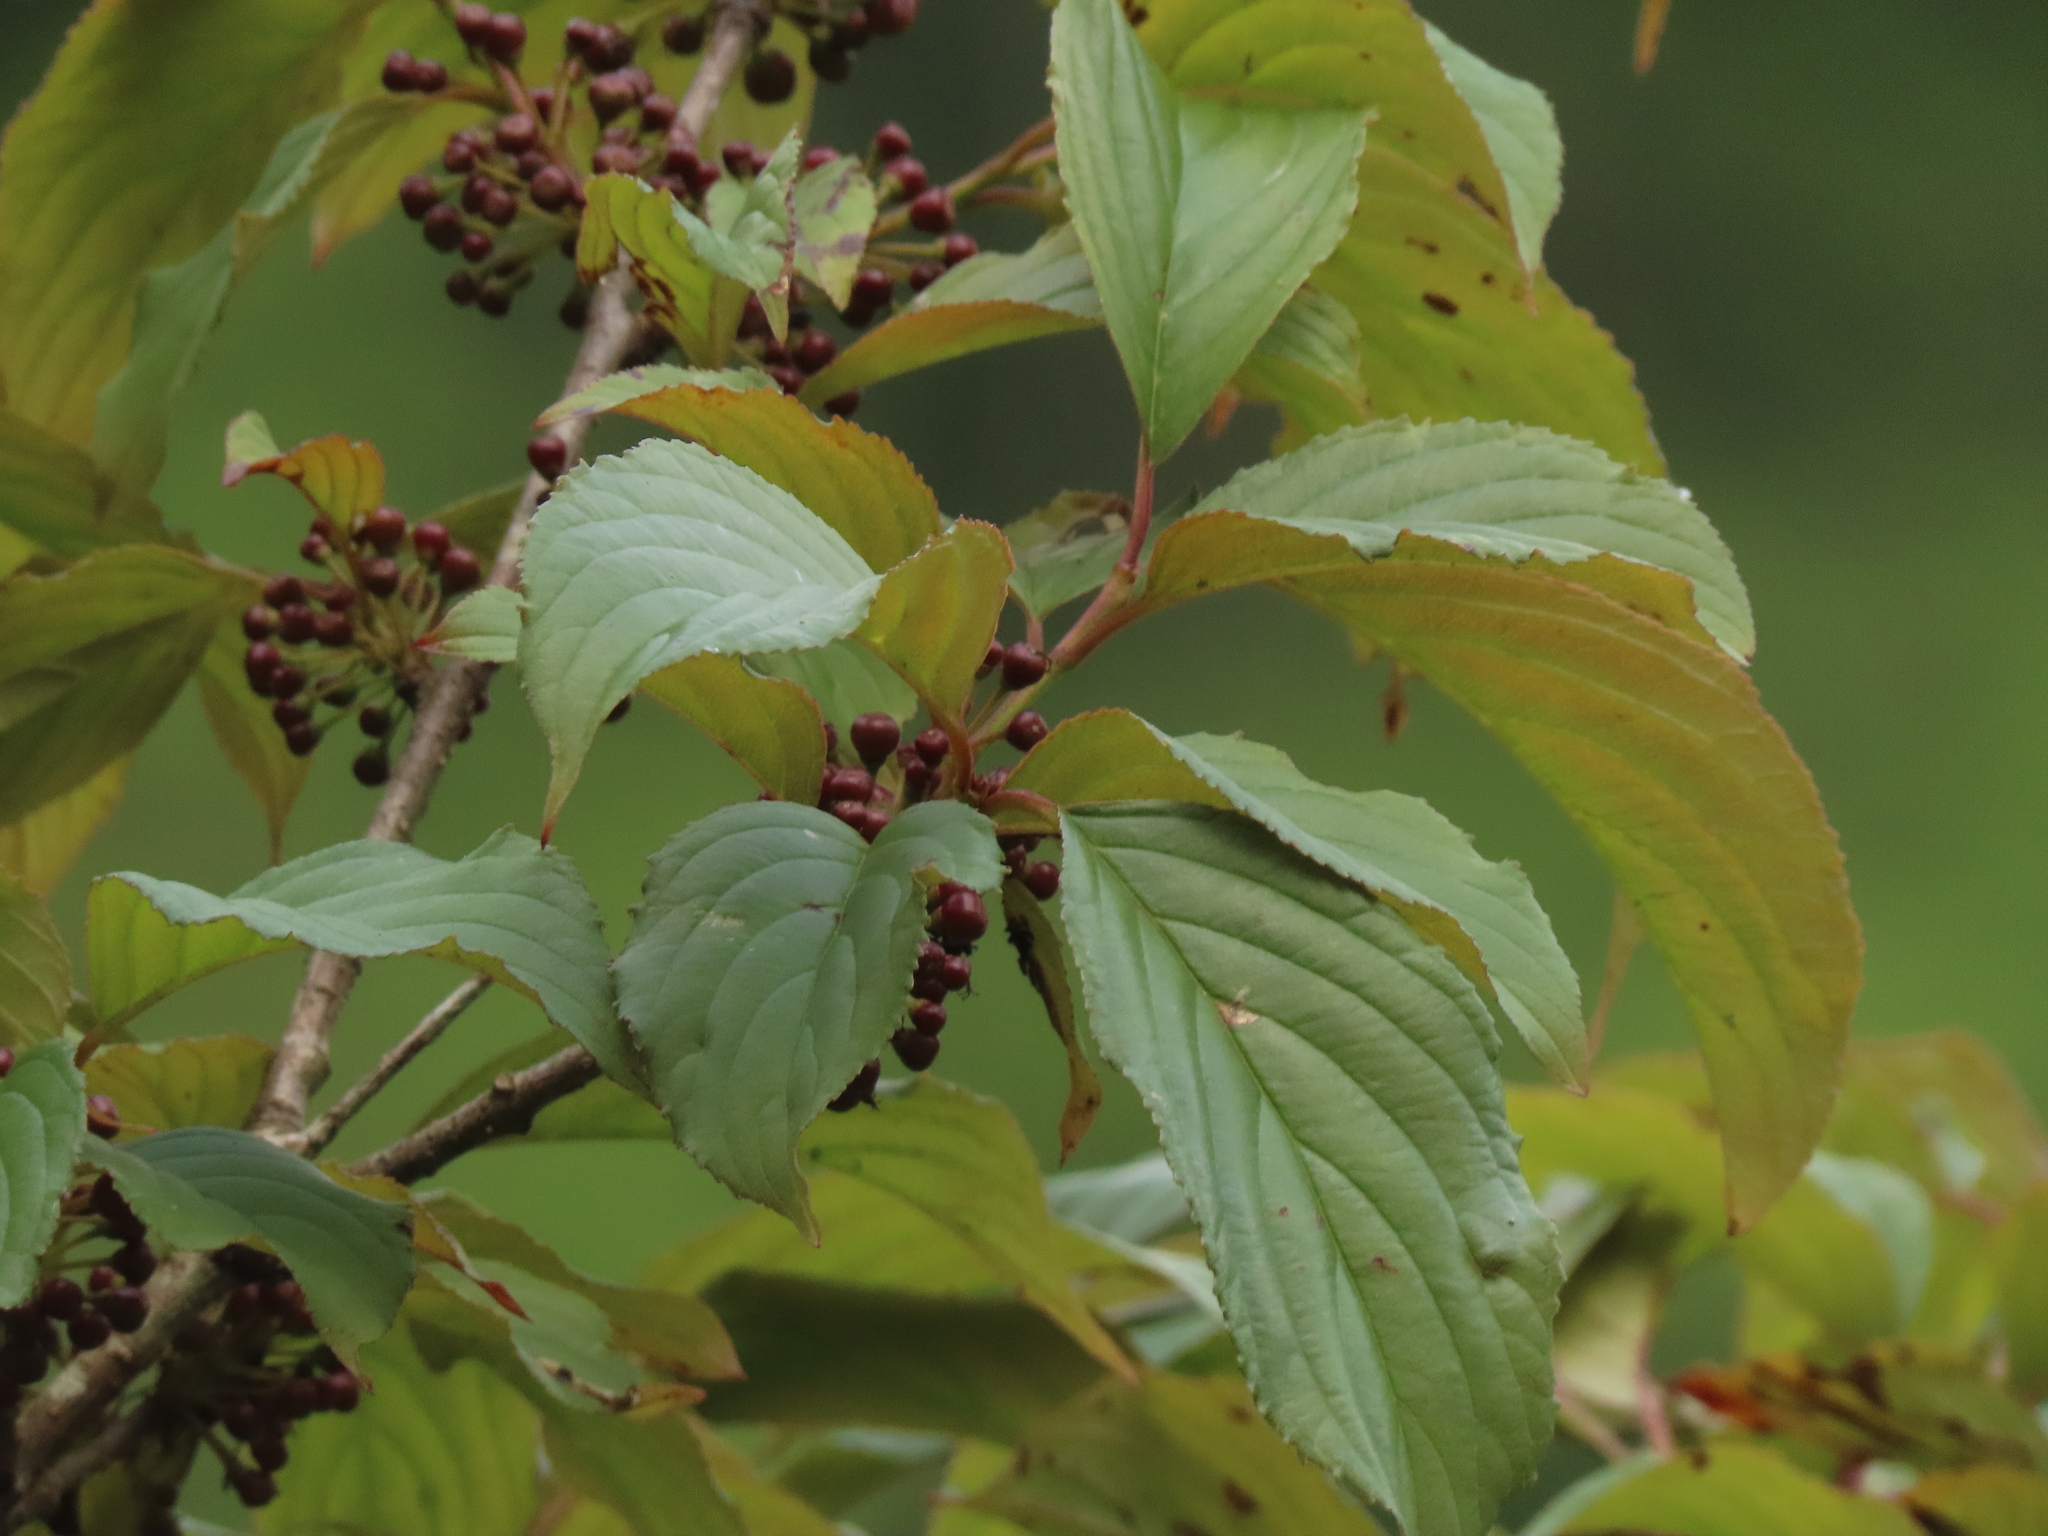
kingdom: Plantae
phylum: Tracheophyta
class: Magnoliopsida
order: Rosales
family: Rhamnaceae
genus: Rhamnus
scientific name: Rhamnus formosana
